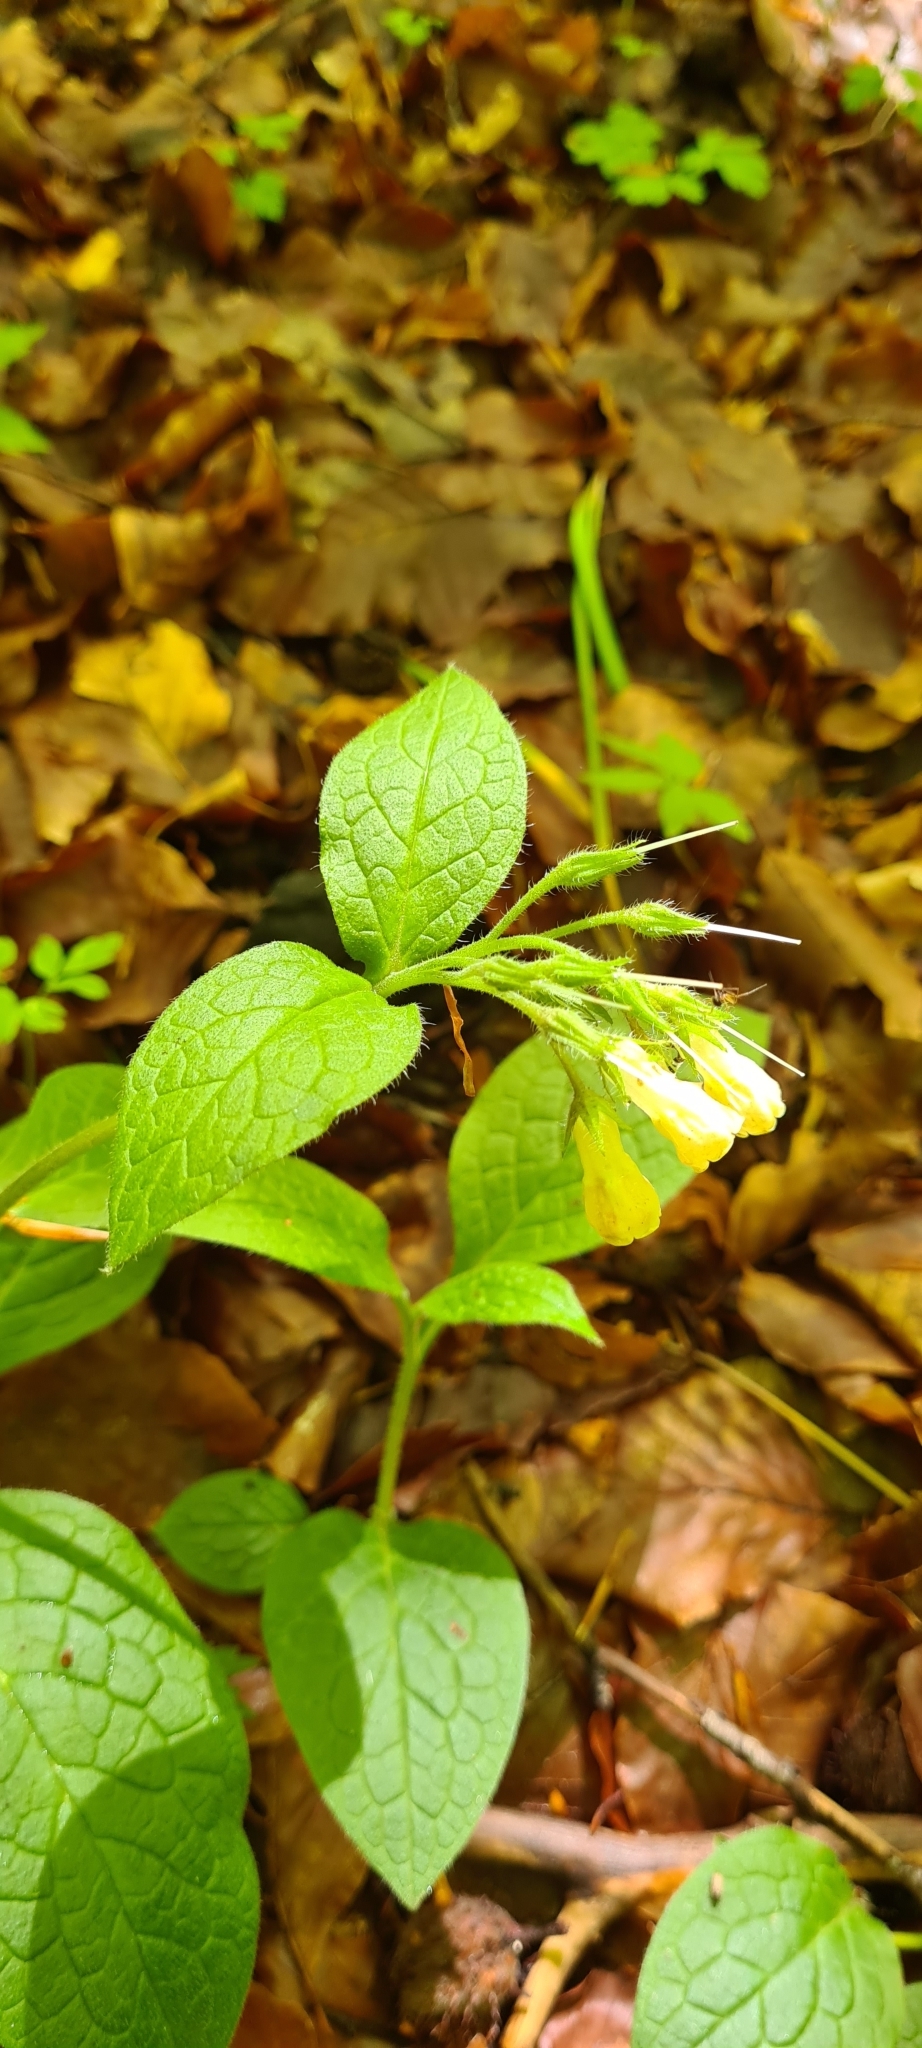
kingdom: Plantae
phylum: Tracheophyta
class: Magnoliopsida
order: Boraginales
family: Boraginaceae
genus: Symphytum
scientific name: Symphytum tuberosum
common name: Tuberous comfrey
